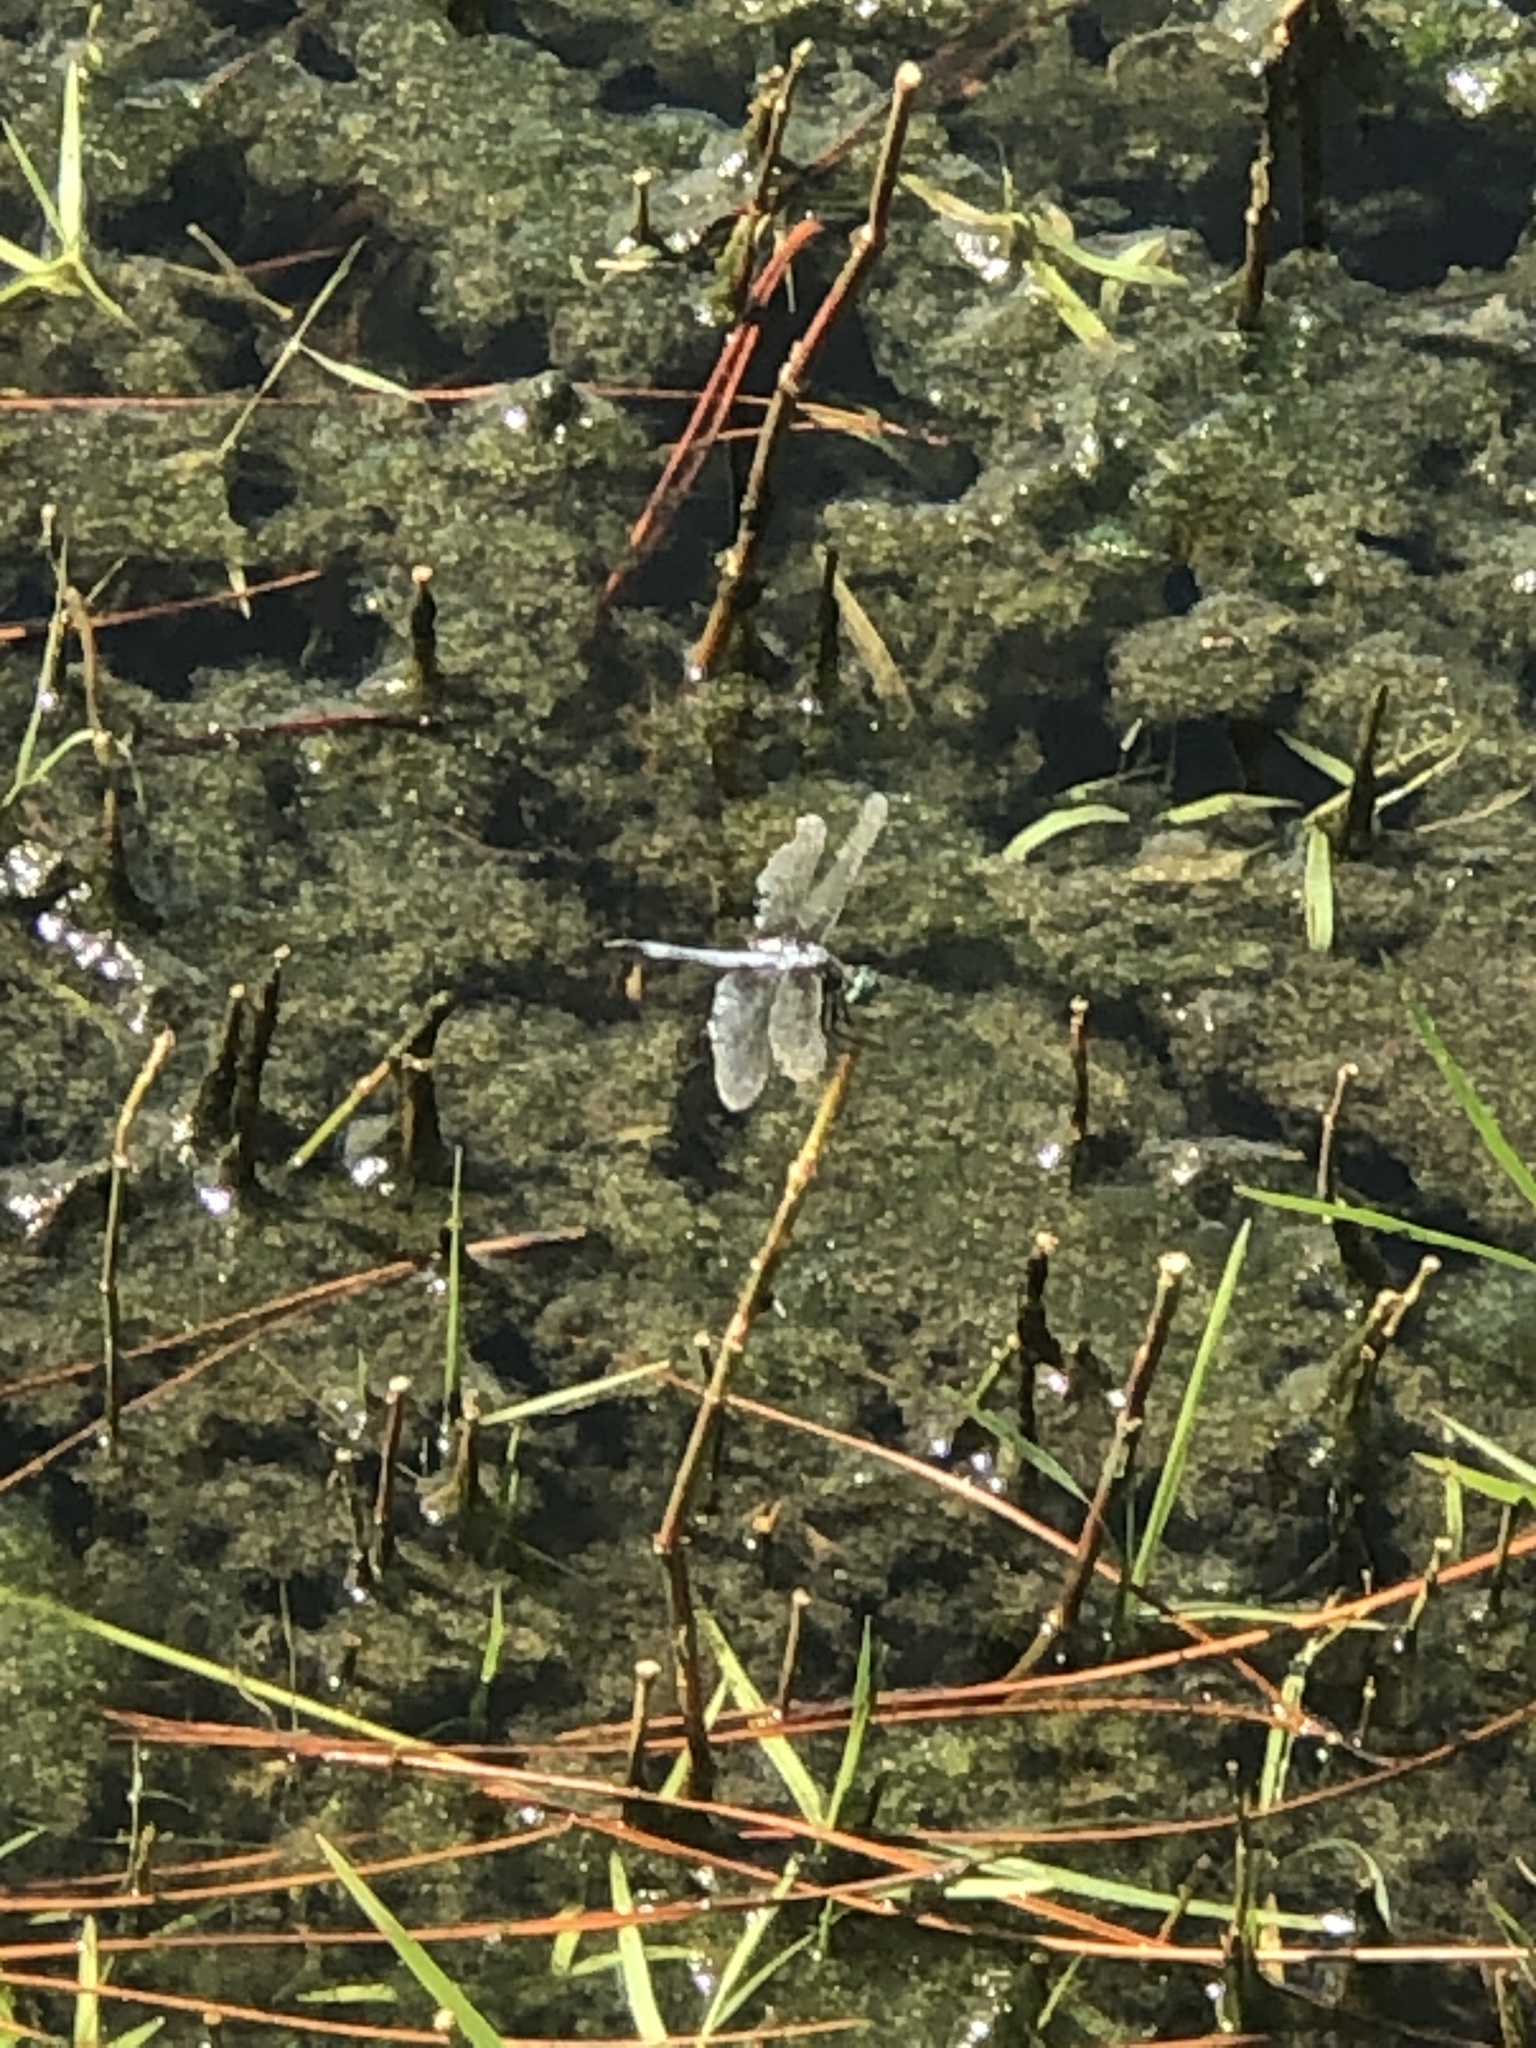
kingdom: Animalia
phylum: Arthropoda
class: Insecta
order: Odonata
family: Libellulidae
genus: Pachydiplax
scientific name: Pachydiplax longipennis
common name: Blue dasher
